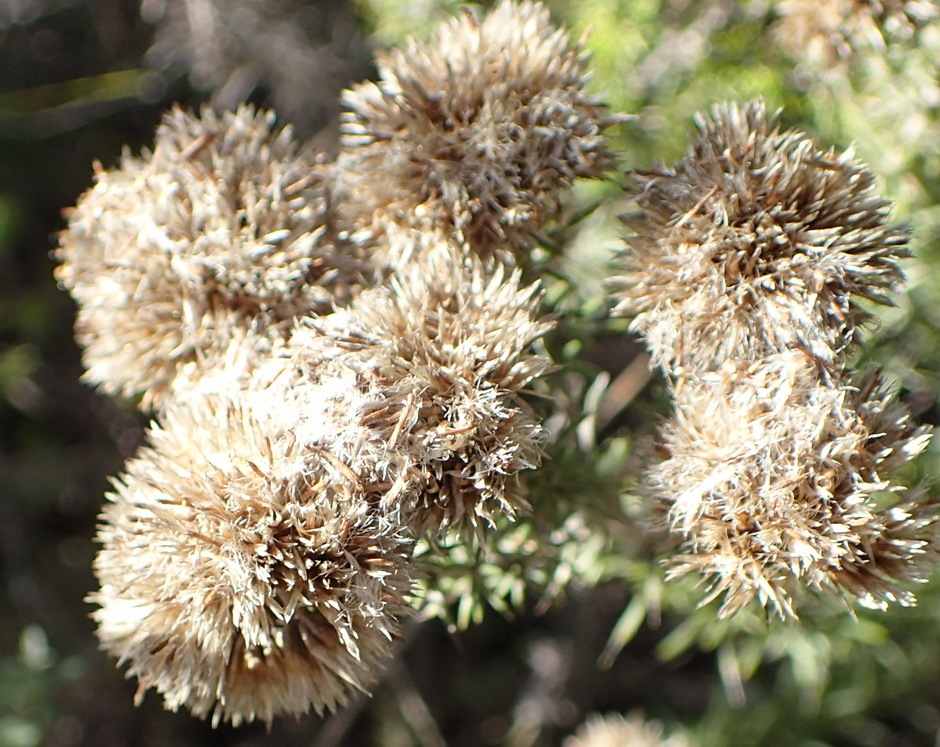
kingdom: Plantae
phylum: Tracheophyta
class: Magnoliopsida
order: Asterales
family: Asteraceae
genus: Metalasia
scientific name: Metalasia acuta
